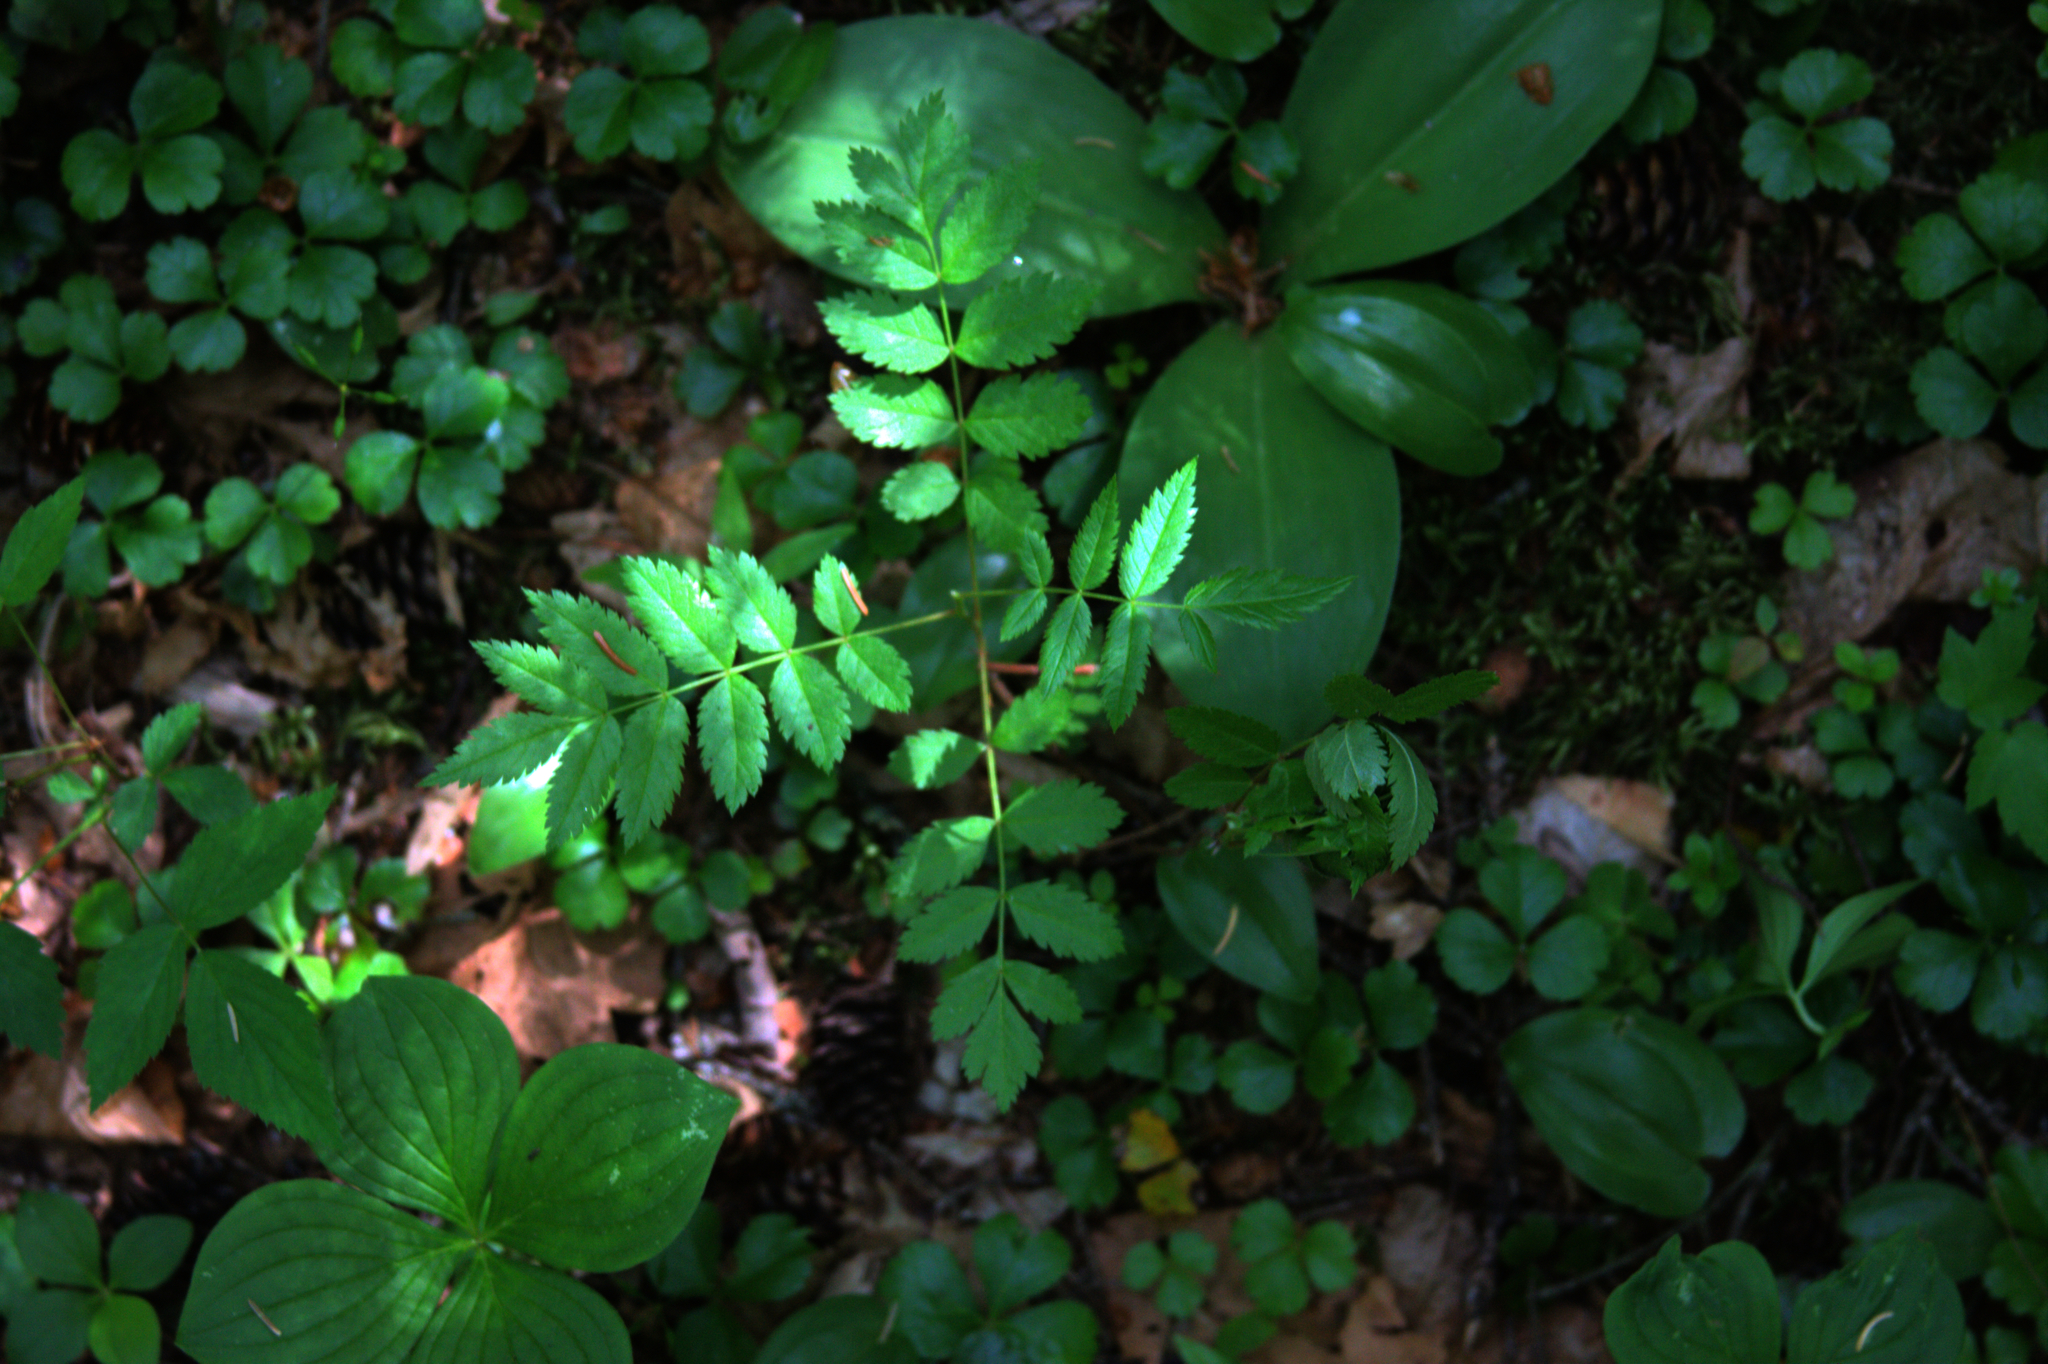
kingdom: Plantae
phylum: Tracheophyta
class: Magnoliopsida
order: Ranunculales
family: Ranunculaceae
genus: Coptis
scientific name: Coptis trifolia
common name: Canker-root
